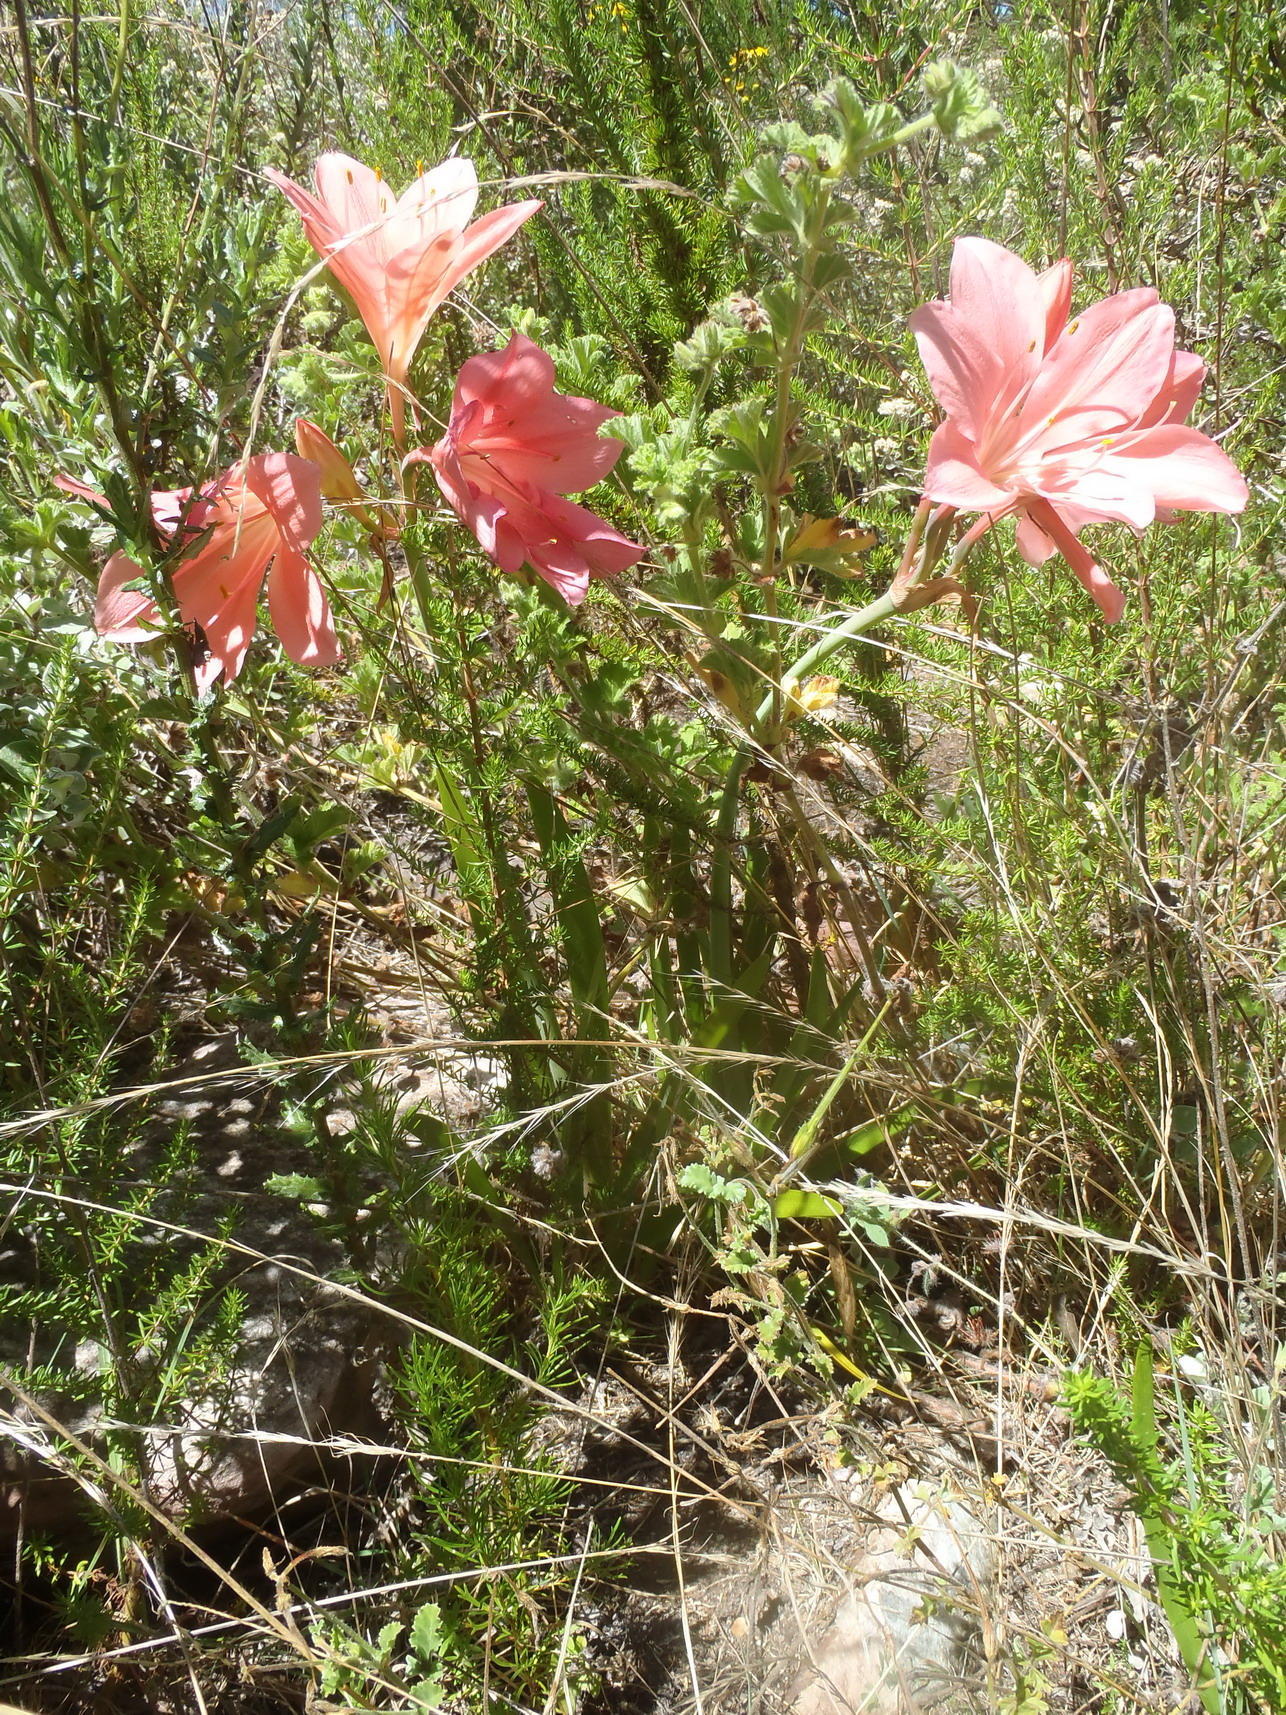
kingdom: Plantae
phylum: Tracheophyta
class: Liliopsida
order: Asparagales
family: Amaryllidaceae
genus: Cyrtanthus
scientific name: Cyrtanthus elatus
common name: Scarborough-lily
